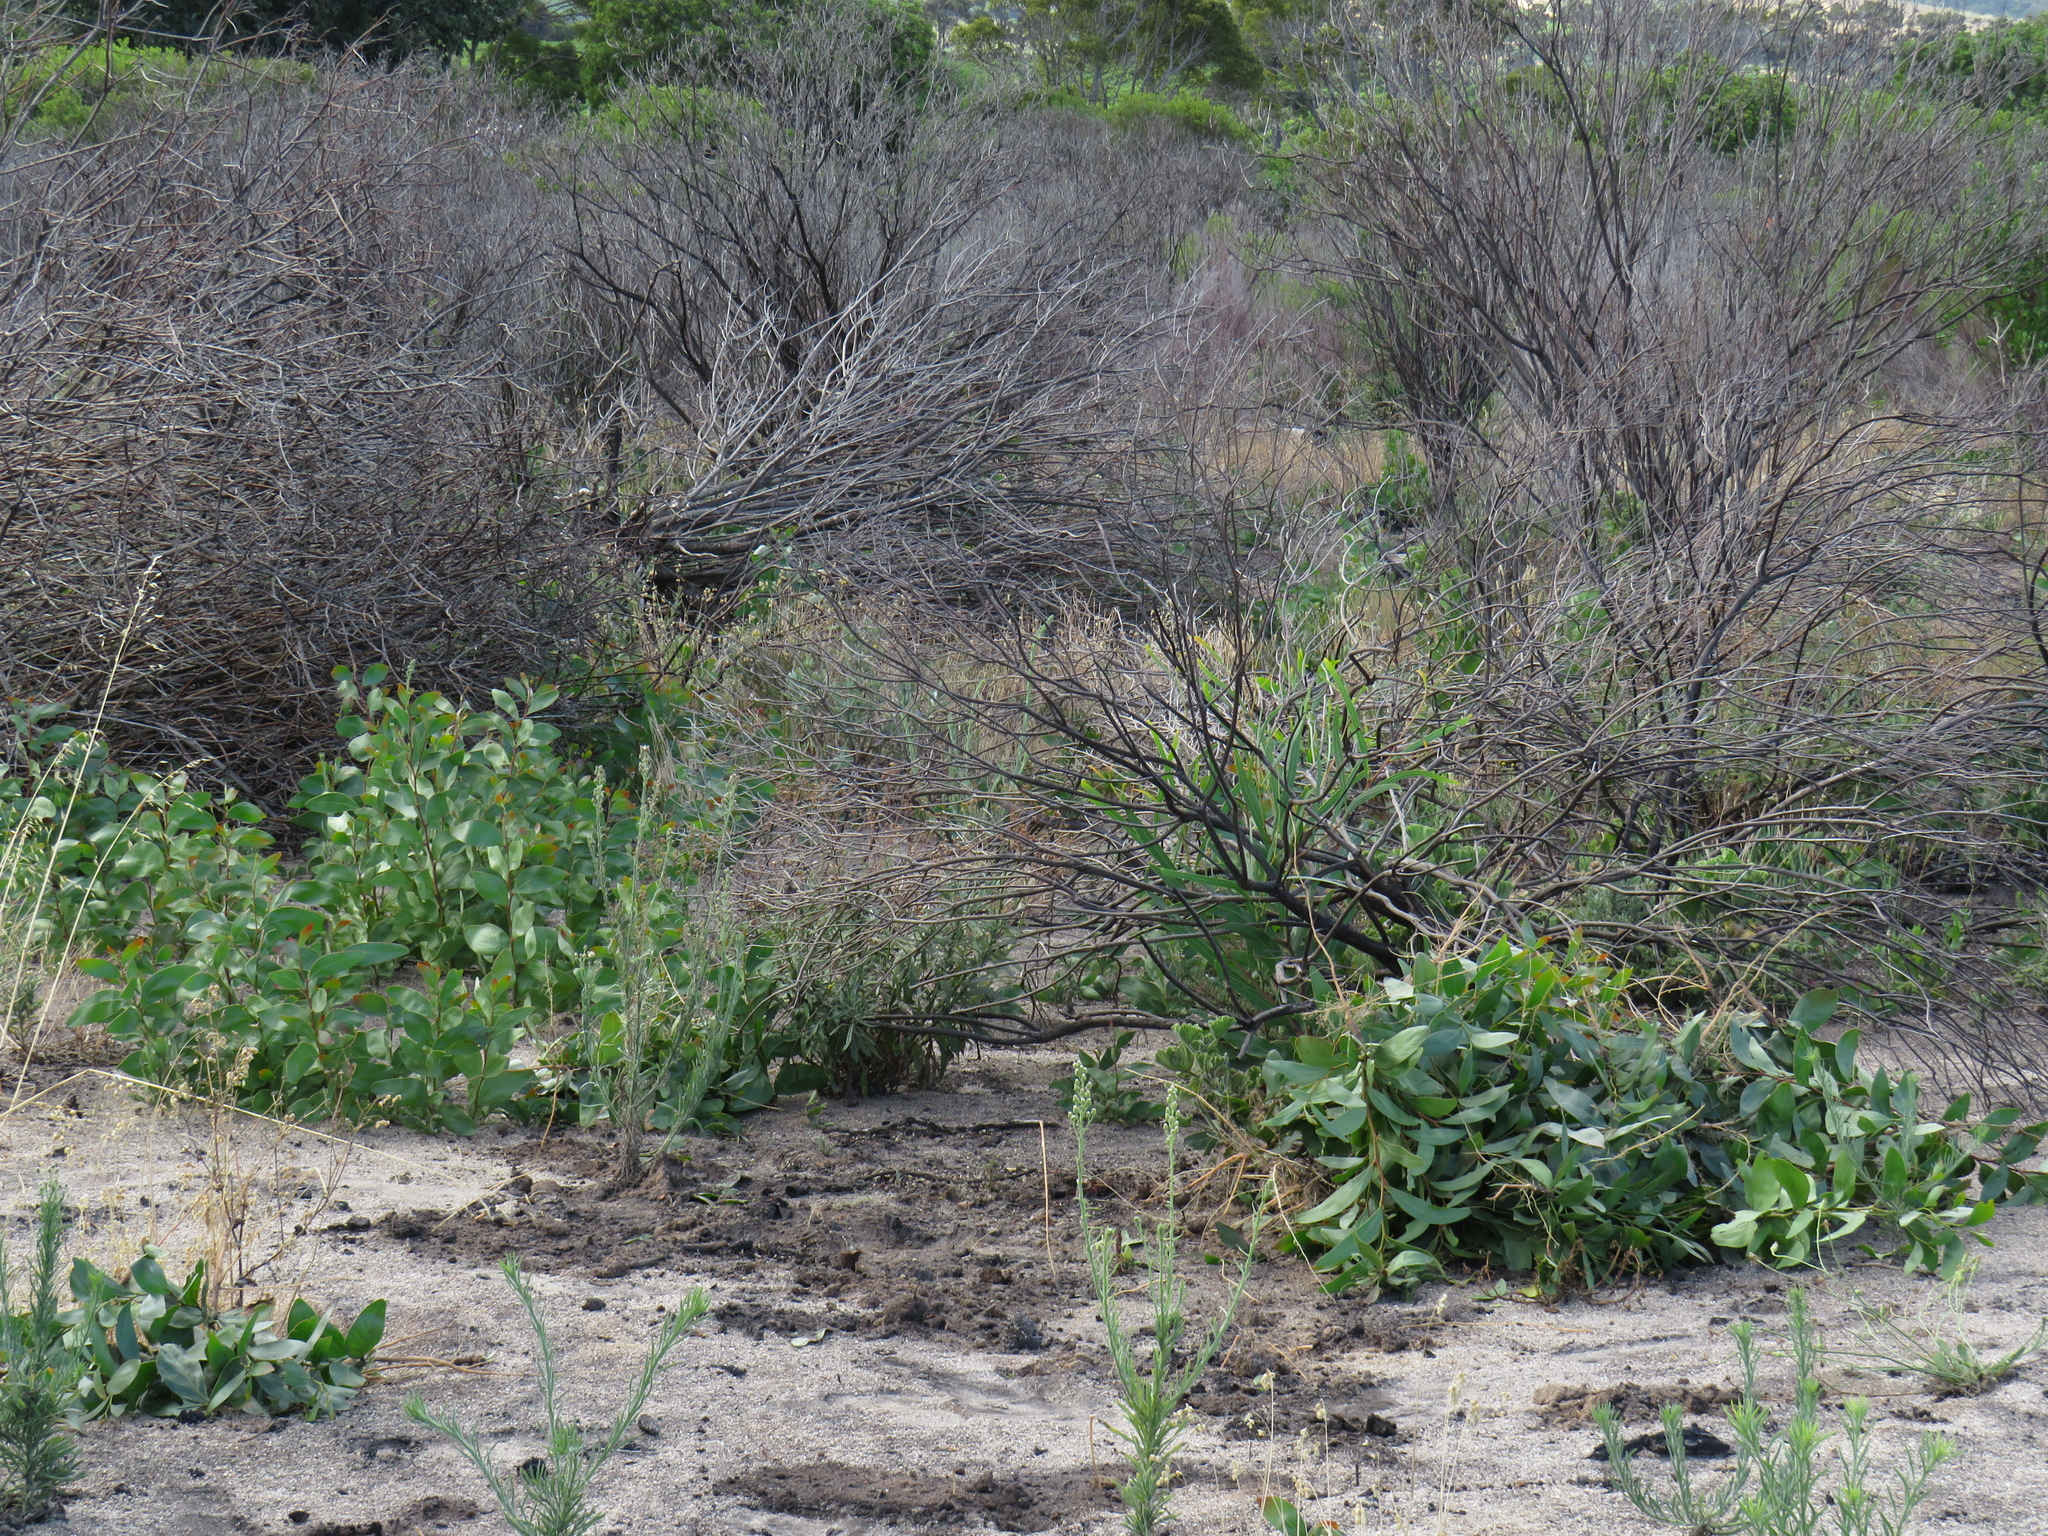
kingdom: Plantae
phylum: Tracheophyta
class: Magnoliopsida
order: Fabales
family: Fabaceae
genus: Acacia
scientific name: Acacia saligna
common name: Orange wattle
